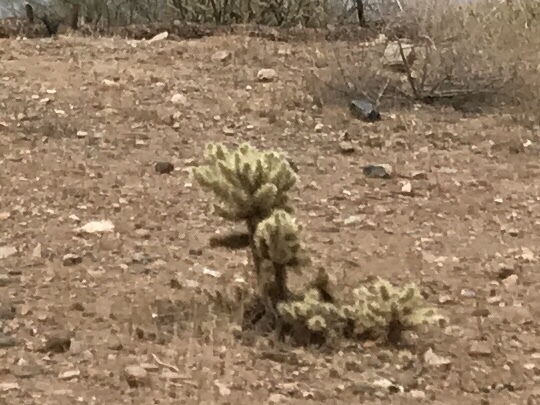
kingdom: Plantae
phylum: Tracheophyta
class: Magnoliopsida
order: Caryophyllales
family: Cactaceae
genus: Cylindropuntia
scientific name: Cylindropuntia fosbergii
